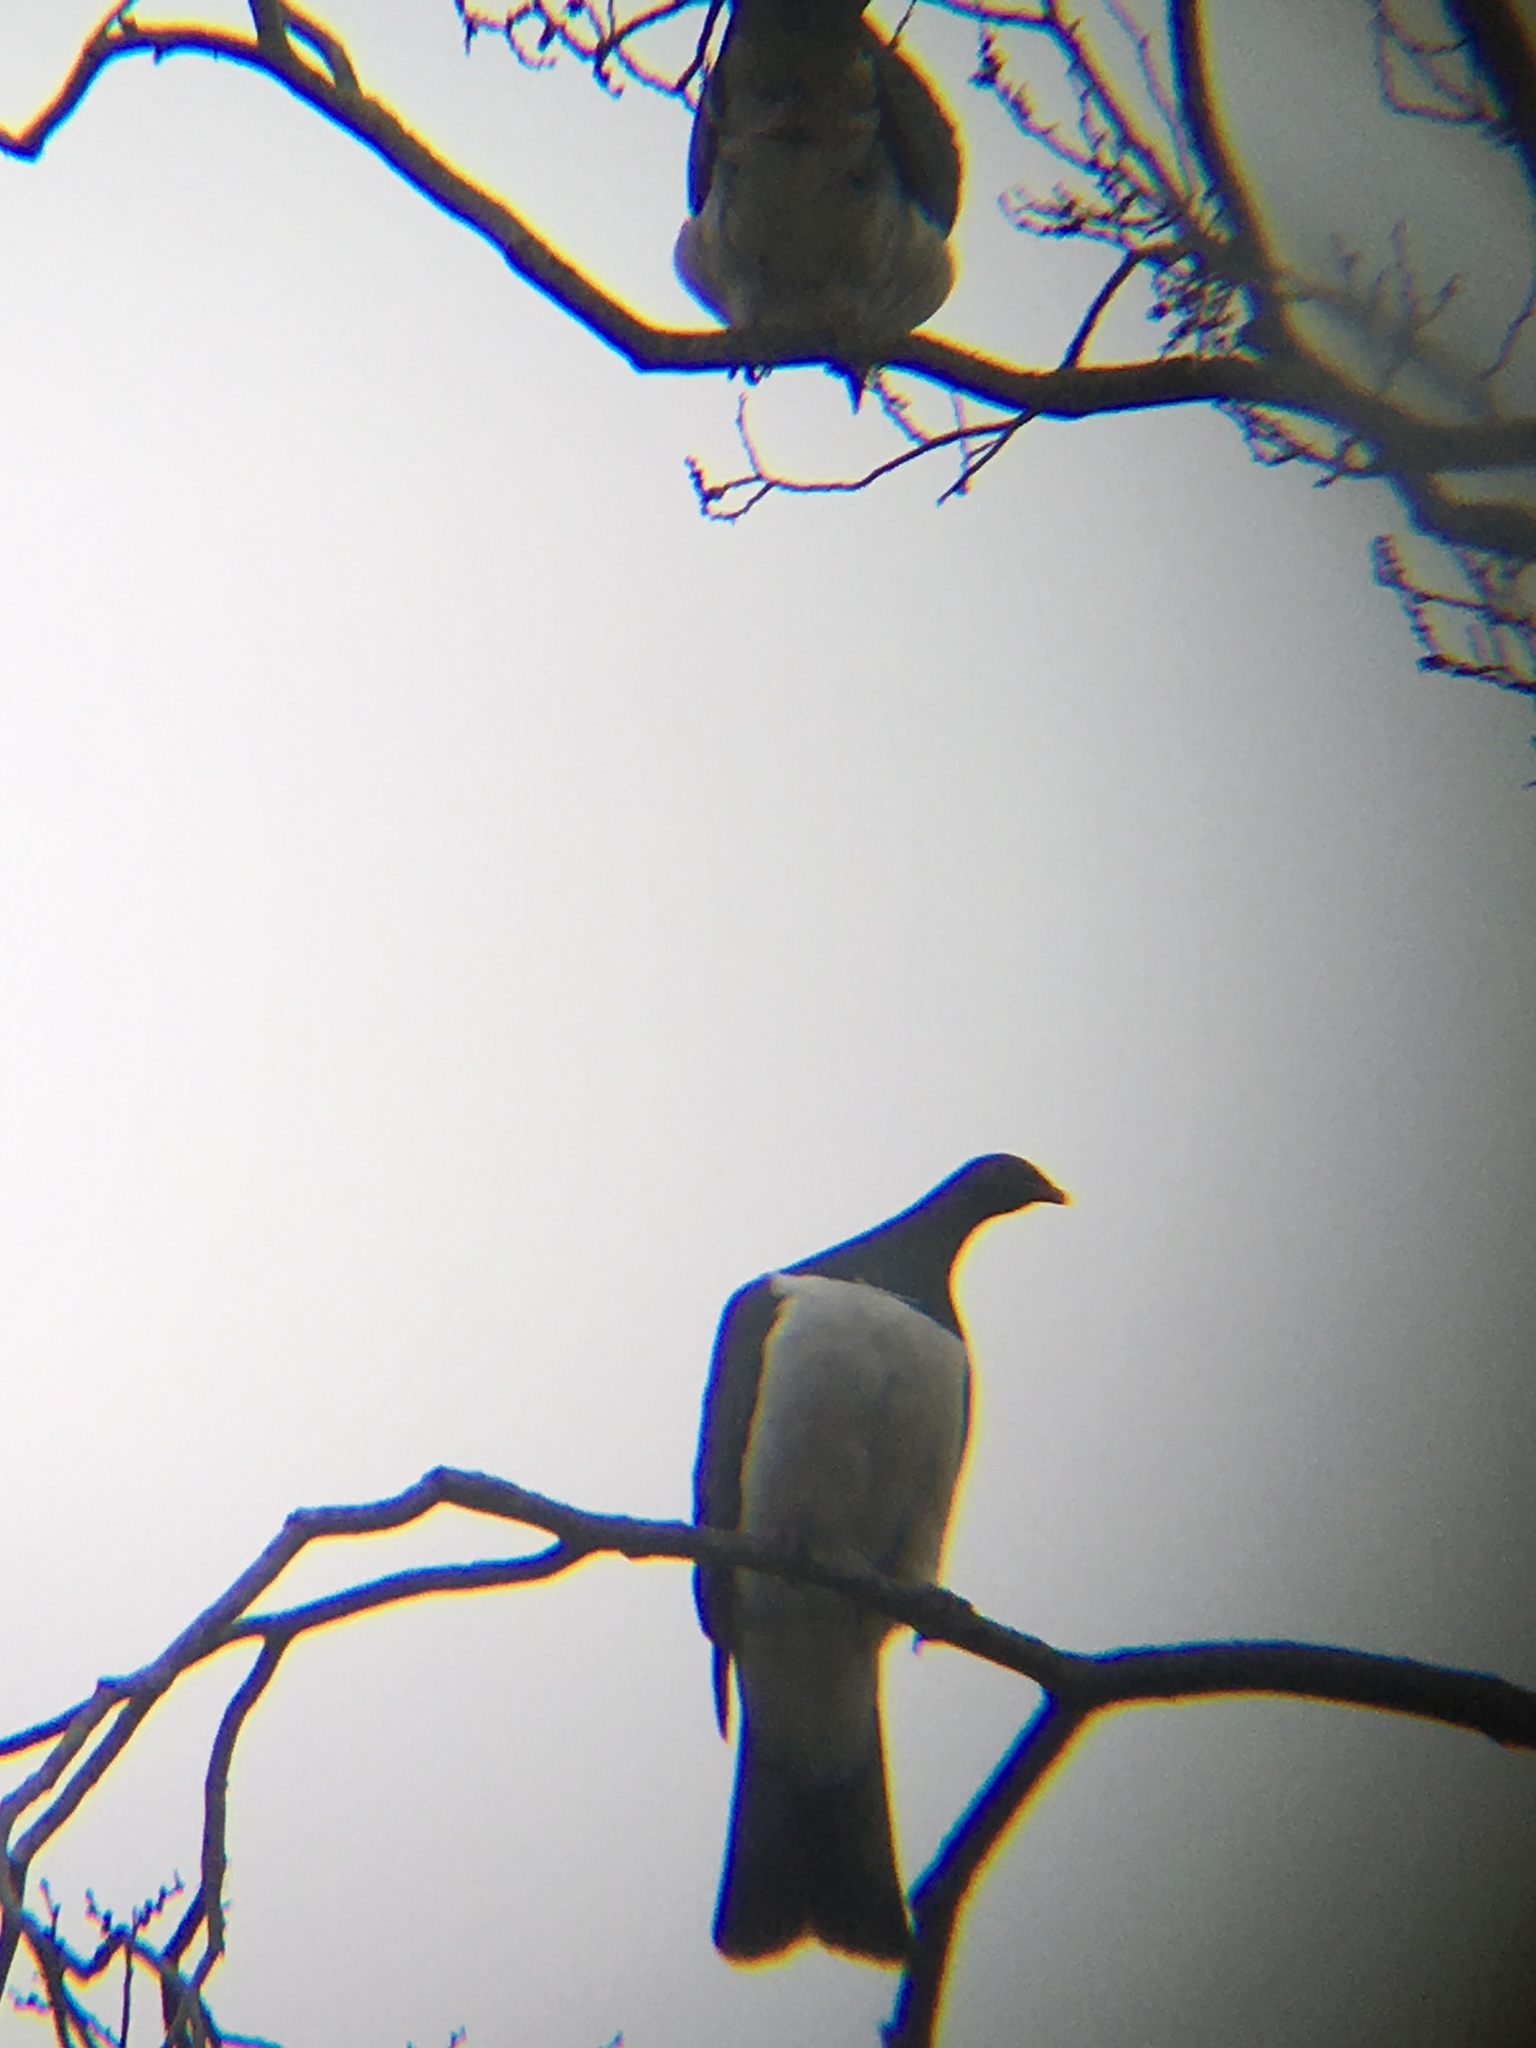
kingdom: Animalia
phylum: Chordata
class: Aves
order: Columbiformes
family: Columbidae
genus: Hemiphaga
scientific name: Hemiphaga novaeseelandiae
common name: New zealand pigeon
